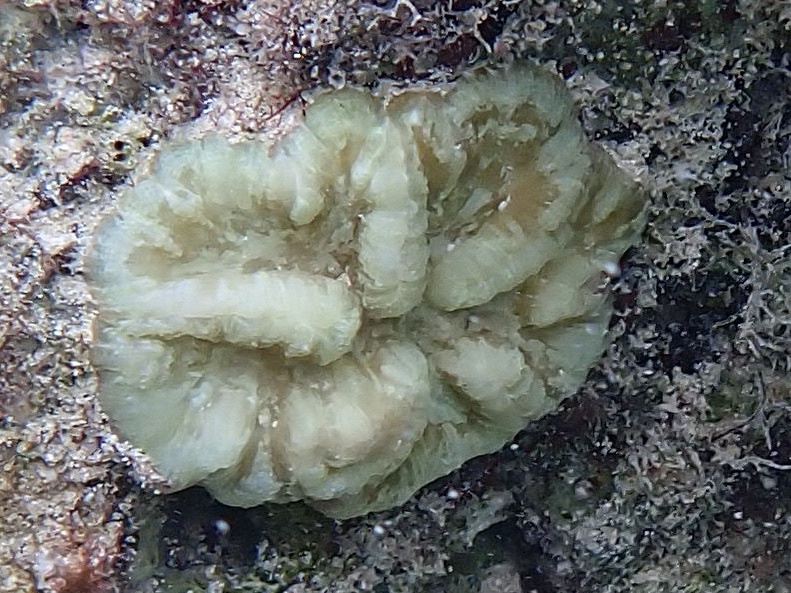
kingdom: Animalia
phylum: Cnidaria
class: Anthozoa
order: Scleractinia
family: Faviidae
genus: Isophyllia
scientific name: Isophyllia sinuosa
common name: Sinuous cactus coral
